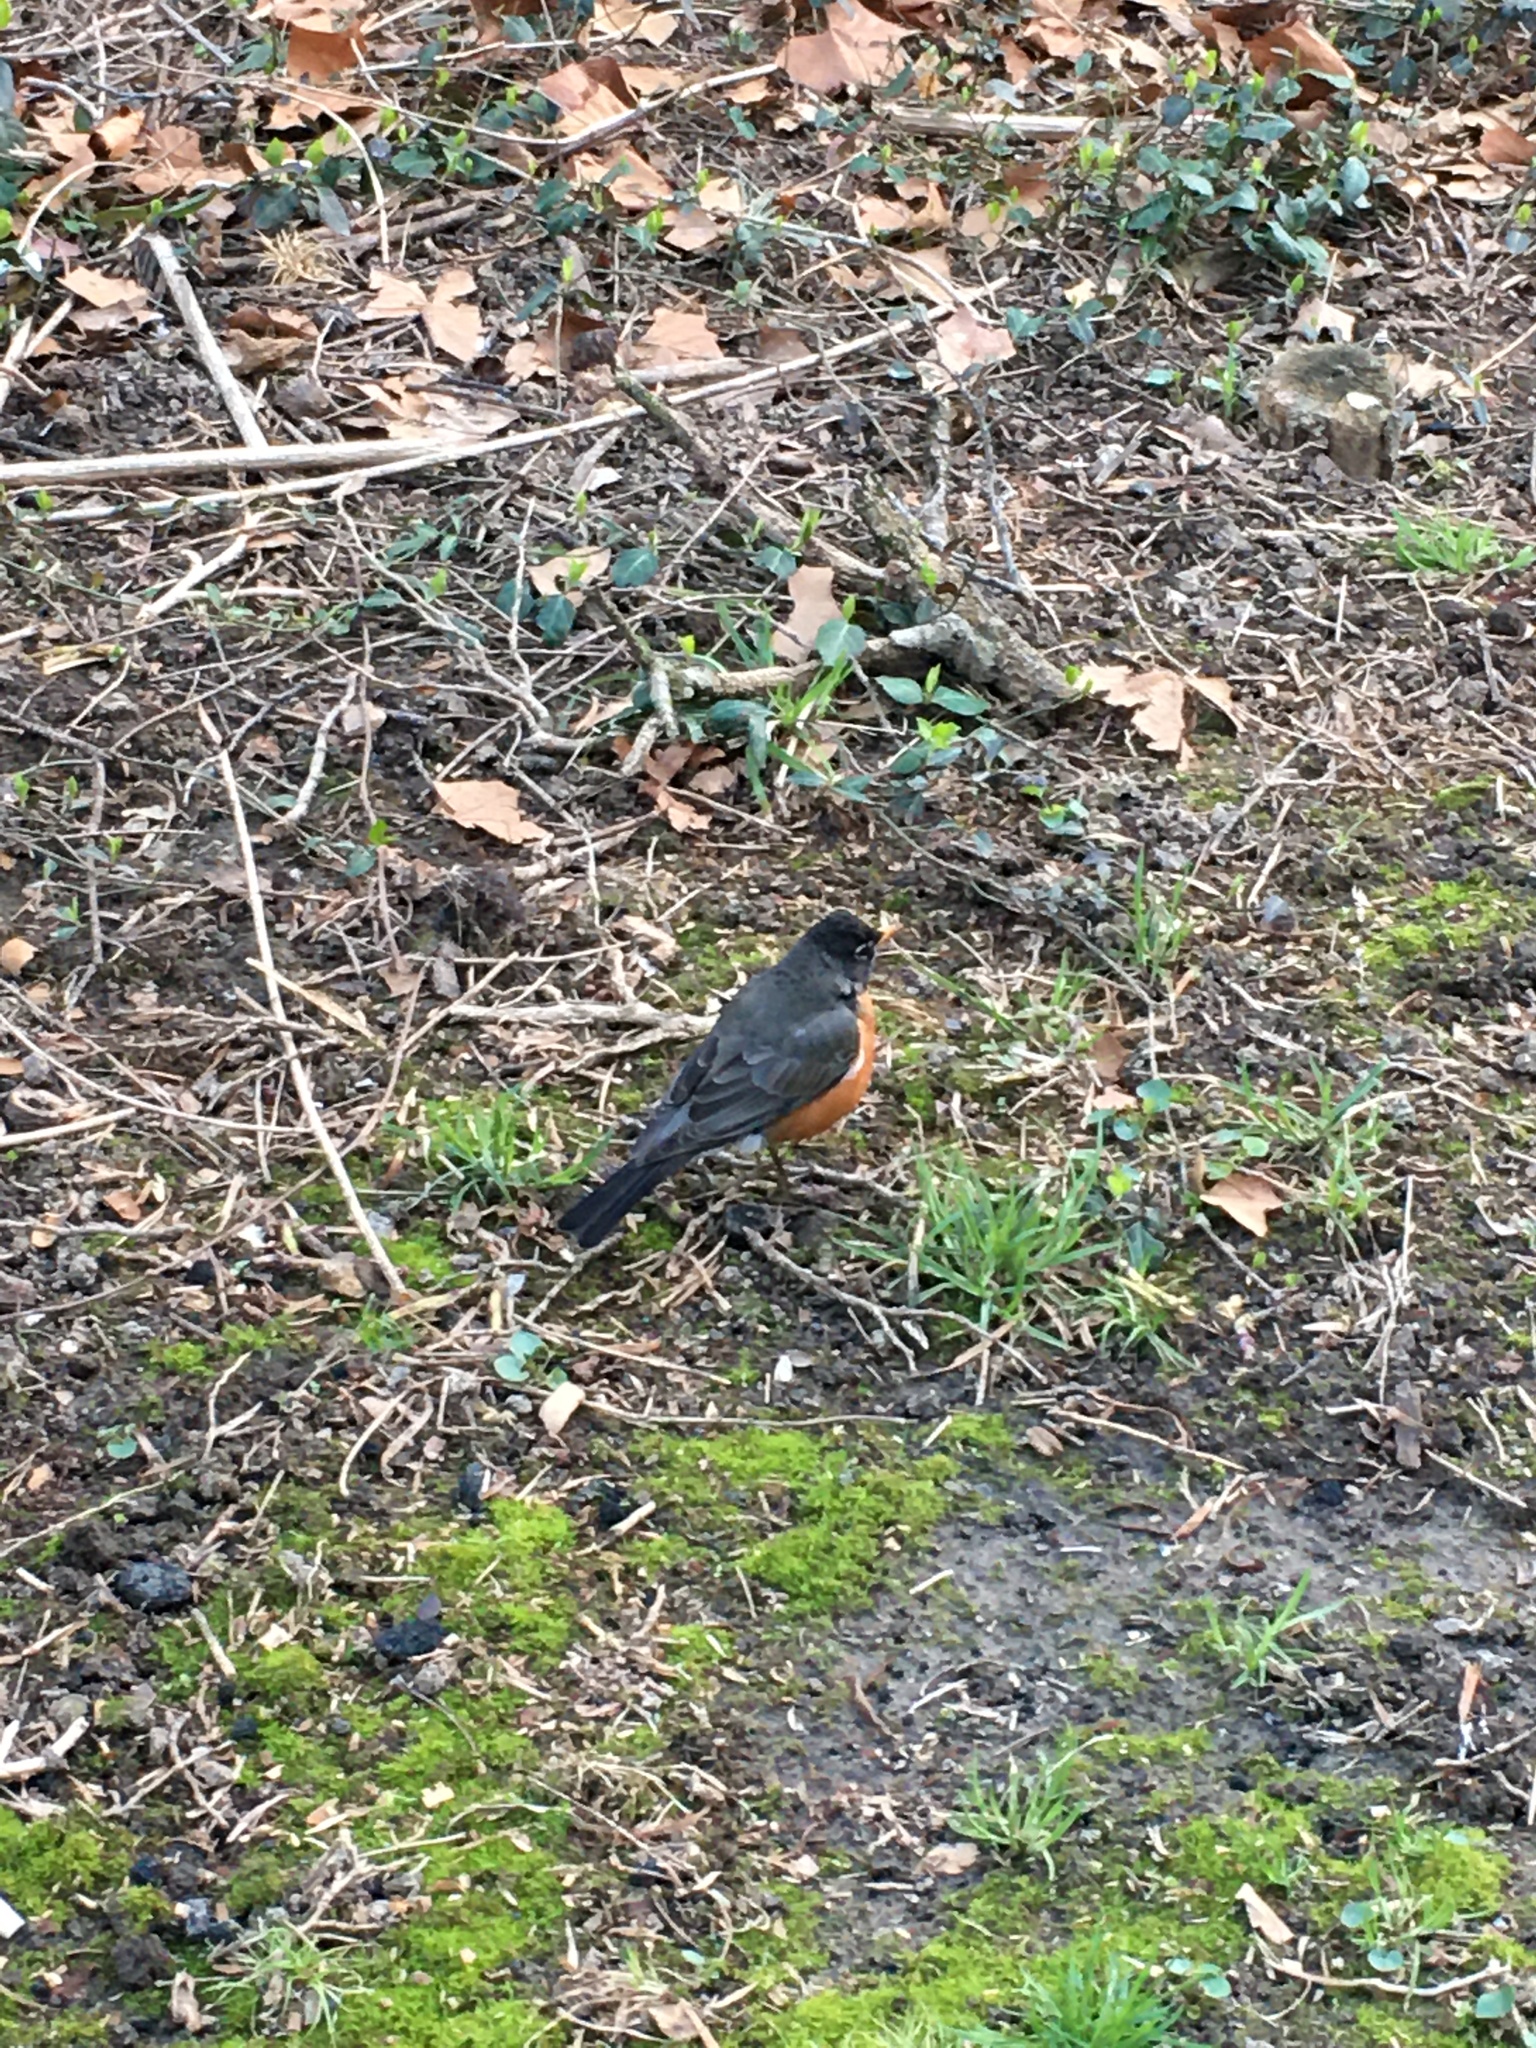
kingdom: Animalia
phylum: Chordata
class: Aves
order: Passeriformes
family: Turdidae
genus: Turdus
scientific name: Turdus migratorius
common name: American robin
